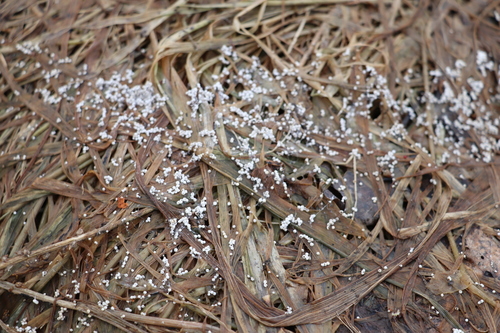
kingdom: Fungi
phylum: Basidiomycota
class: Agaricomycetes
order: Agaricales
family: Typhulaceae
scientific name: Typhulaceae
